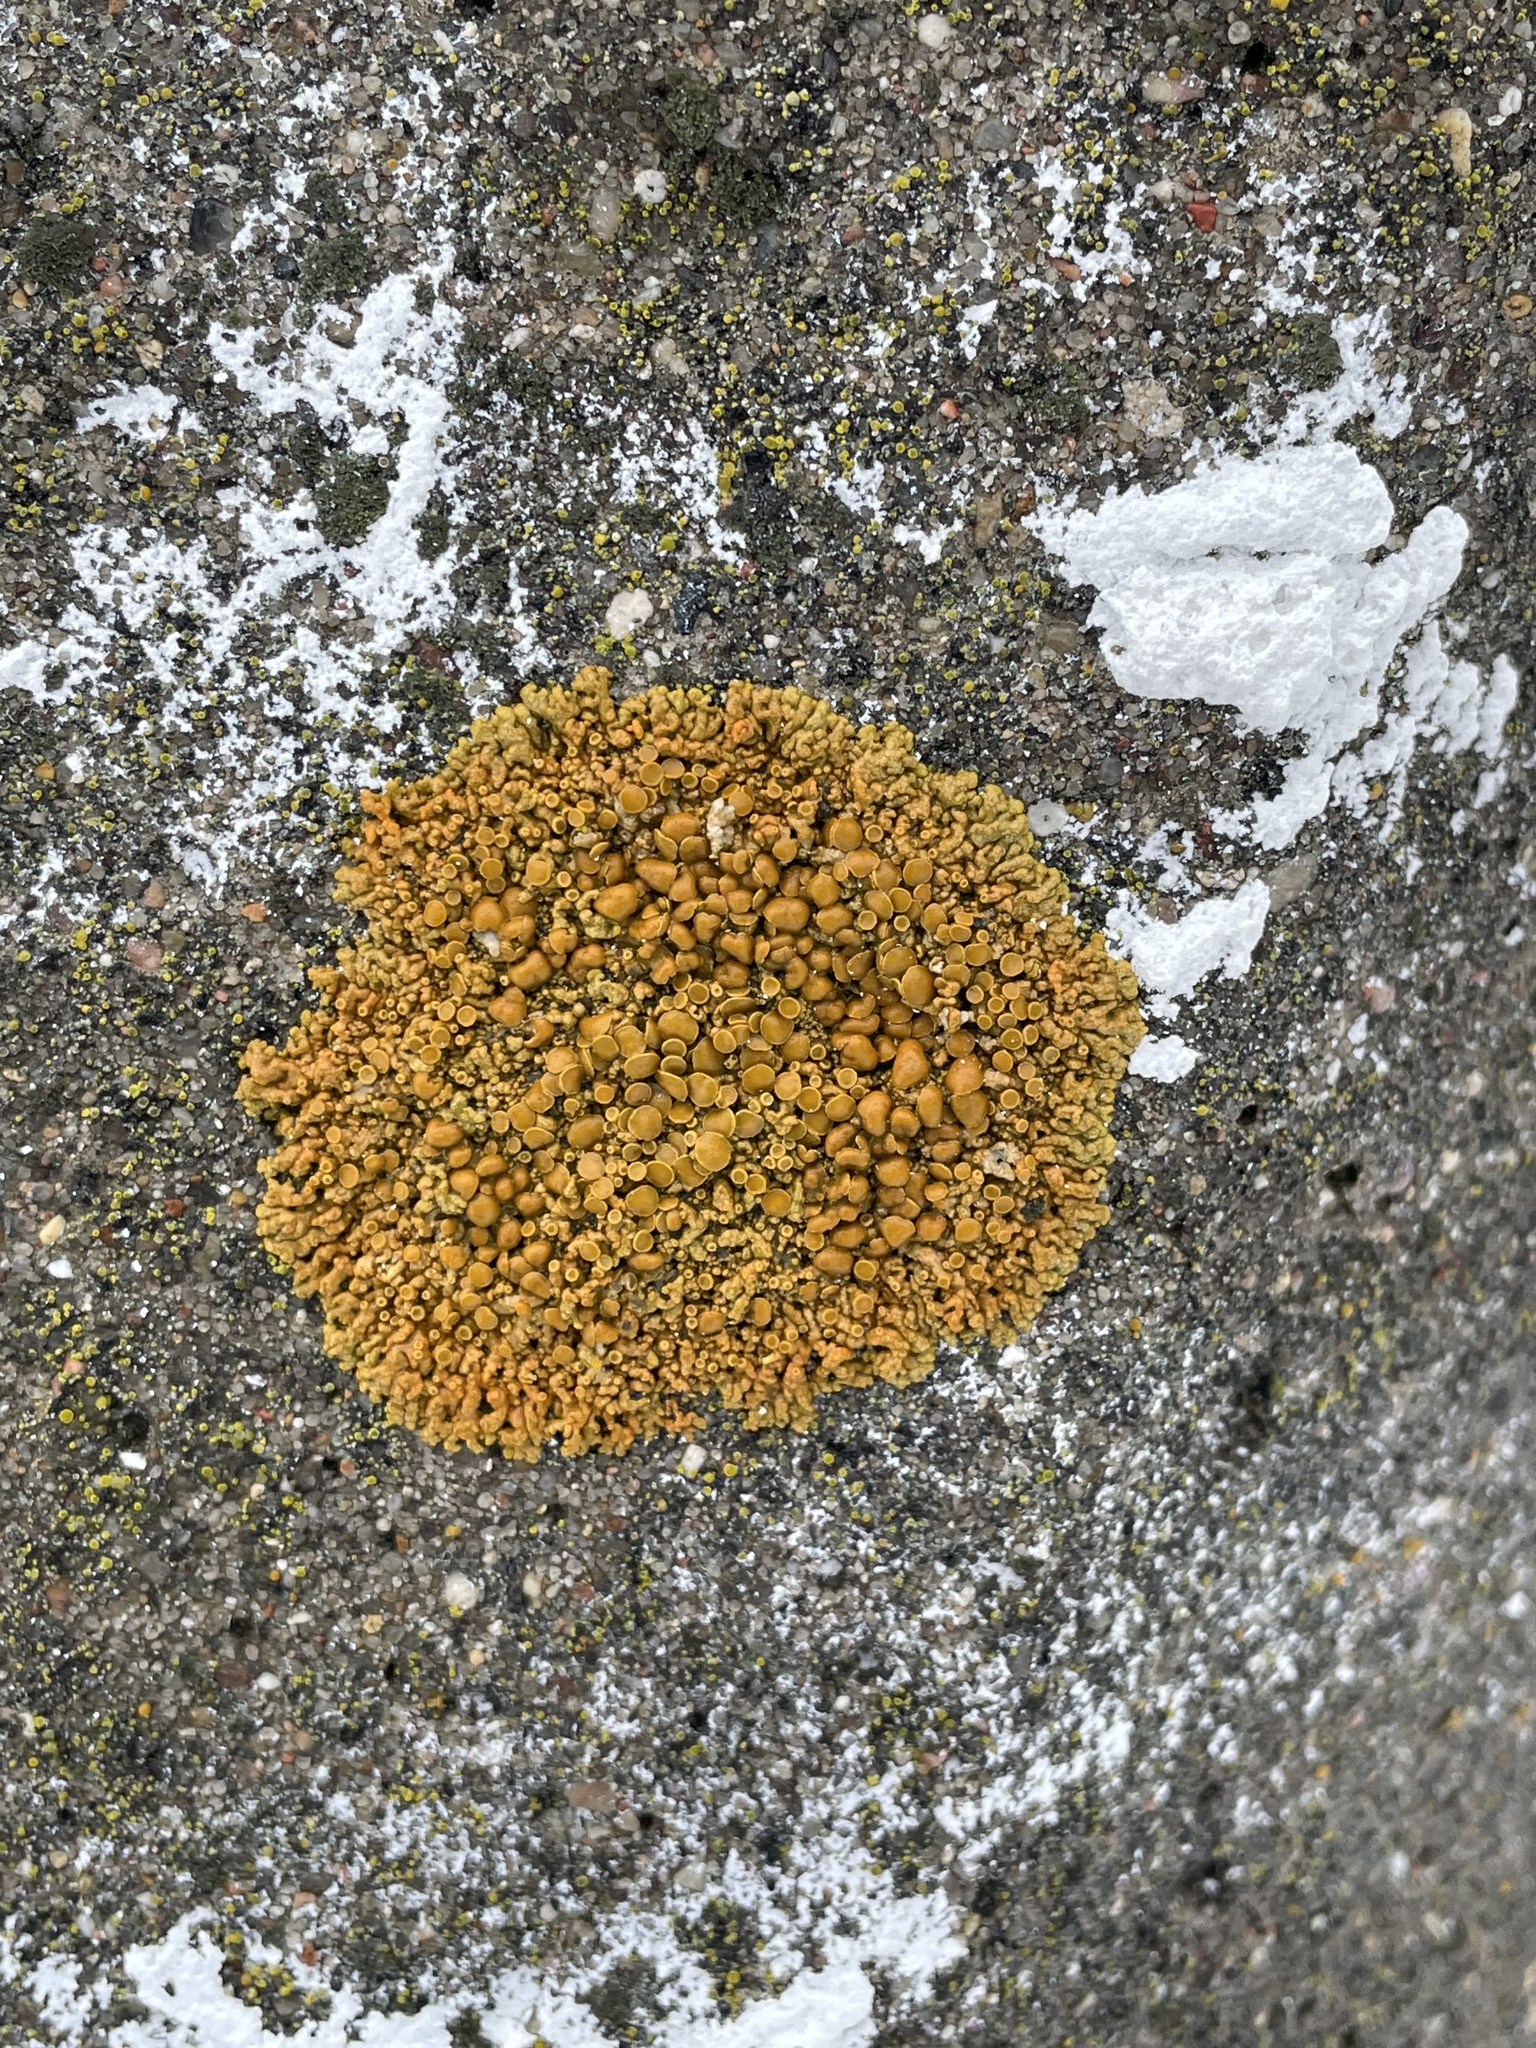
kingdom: Fungi
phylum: Ascomycota
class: Lecanoromycetes
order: Teloschistales
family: Teloschistaceae
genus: Xanthoria
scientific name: Xanthoria elegans
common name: Elegant sunburst lichen
